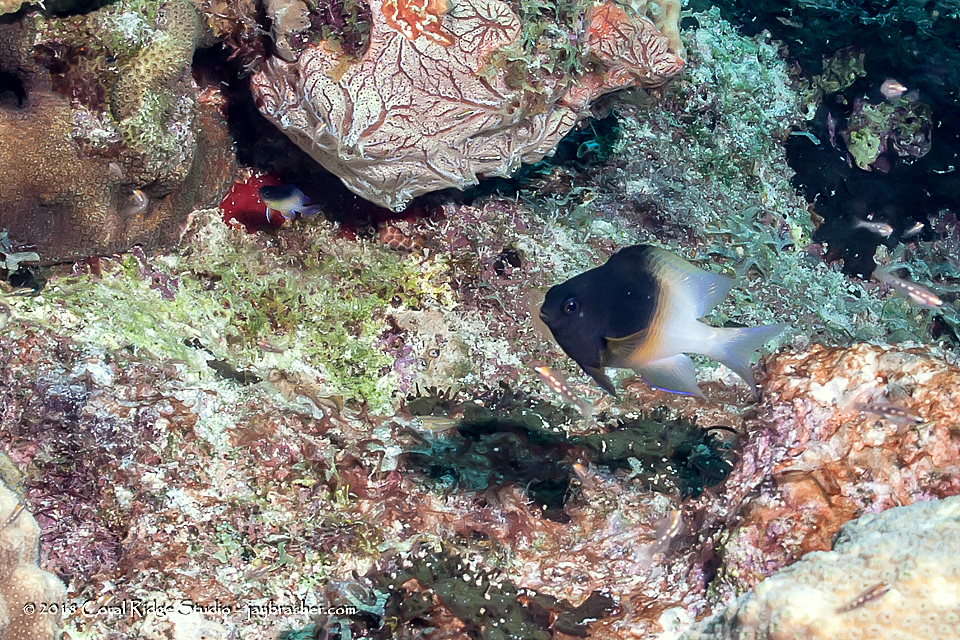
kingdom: Animalia
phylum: Chordata
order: Perciformes
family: Pomacentridae
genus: Stegastes
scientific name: Stegastes partitus
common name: Bicolor damselfish
